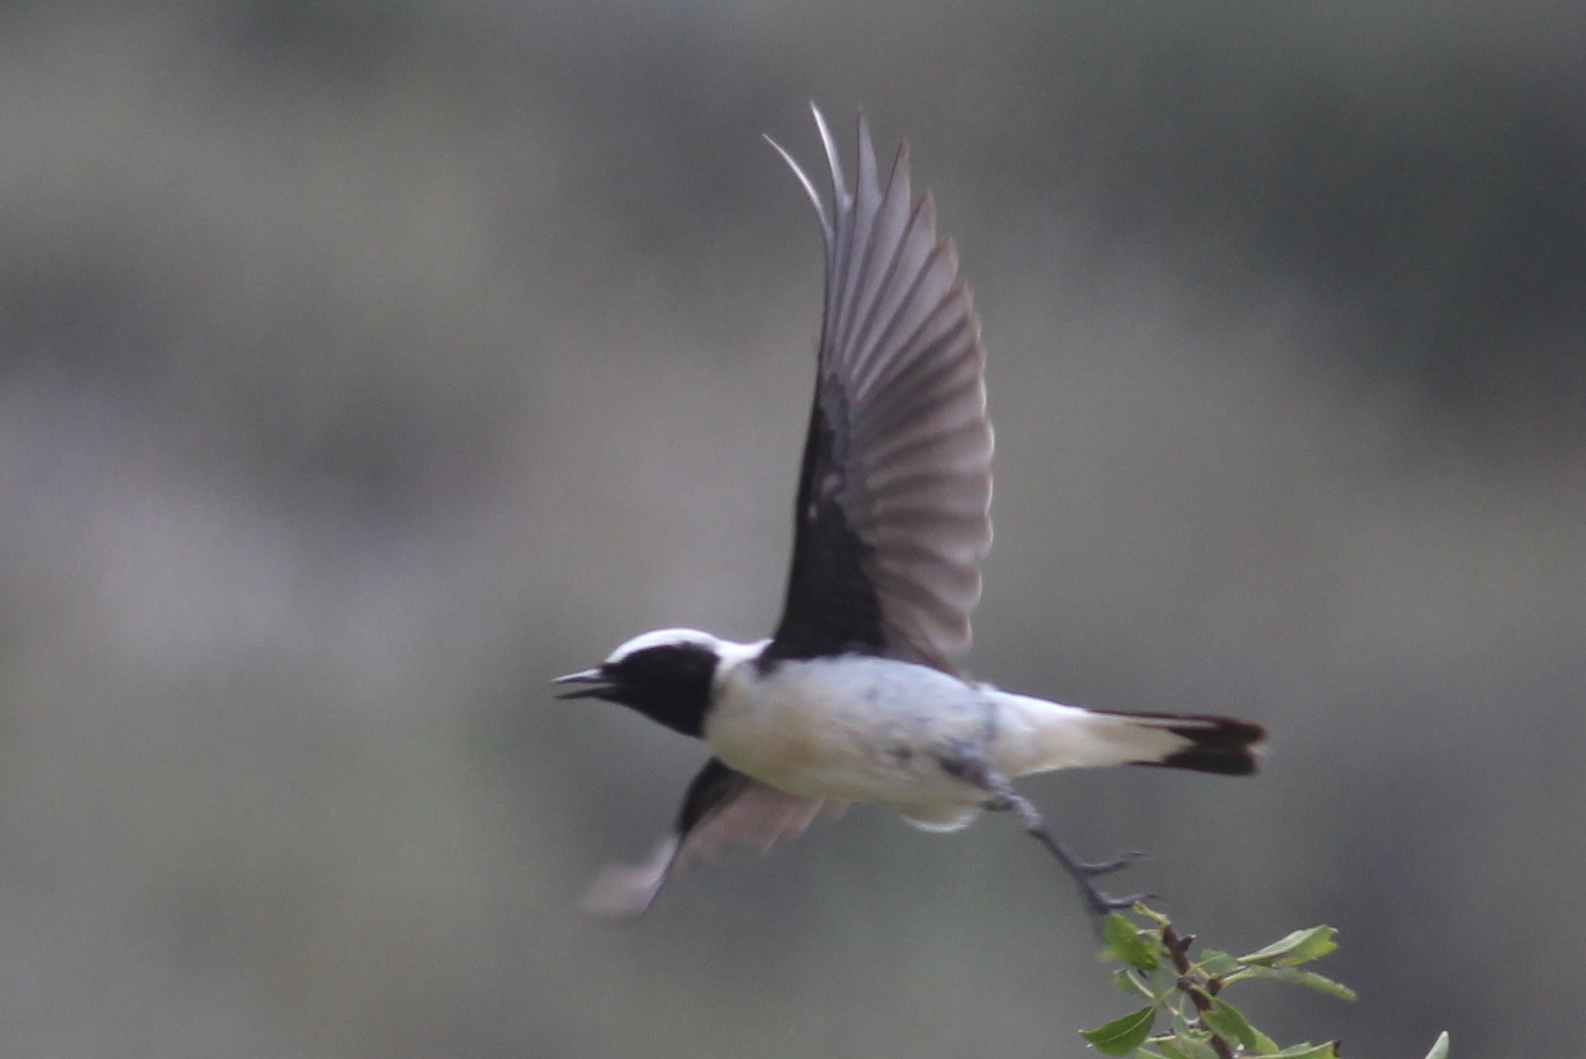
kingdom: Animalia
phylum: Chordata
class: Aves
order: Passeriformes
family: Muscicapidae
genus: Oenanthe
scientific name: Oenanthe hispanica
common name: Black-eared wheatear
